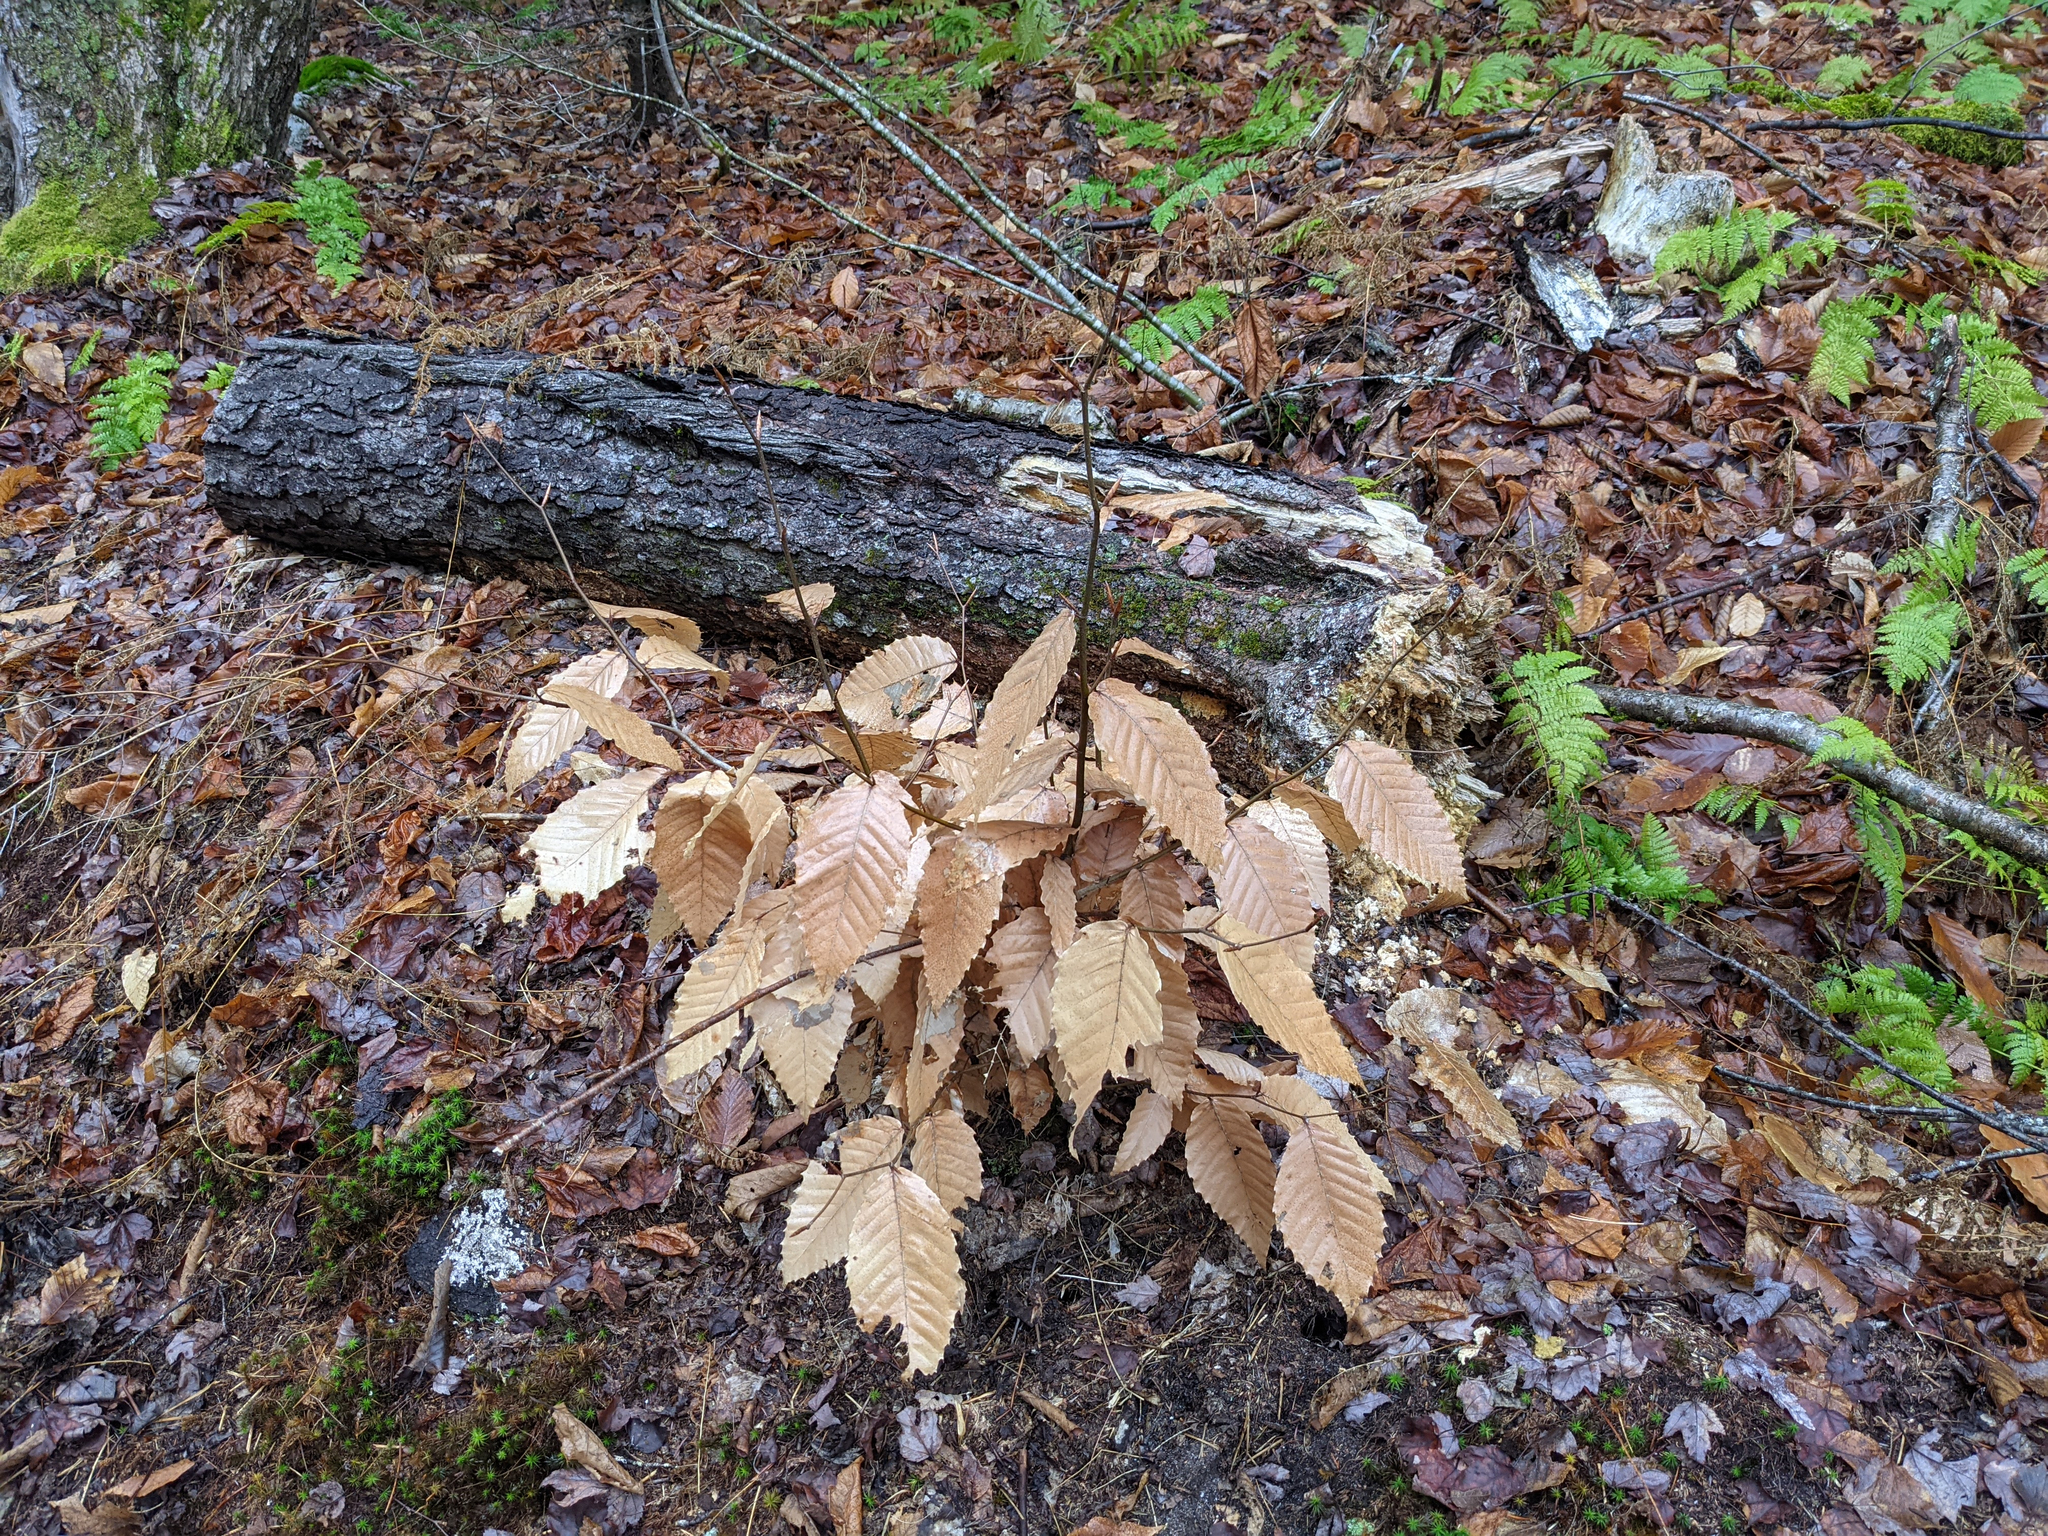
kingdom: Plantae
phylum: Tracheophyta
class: Magnoliopsida
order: Fagales
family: Fagaceae
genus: Fagus
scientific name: Fagus grandifolia
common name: American beech
